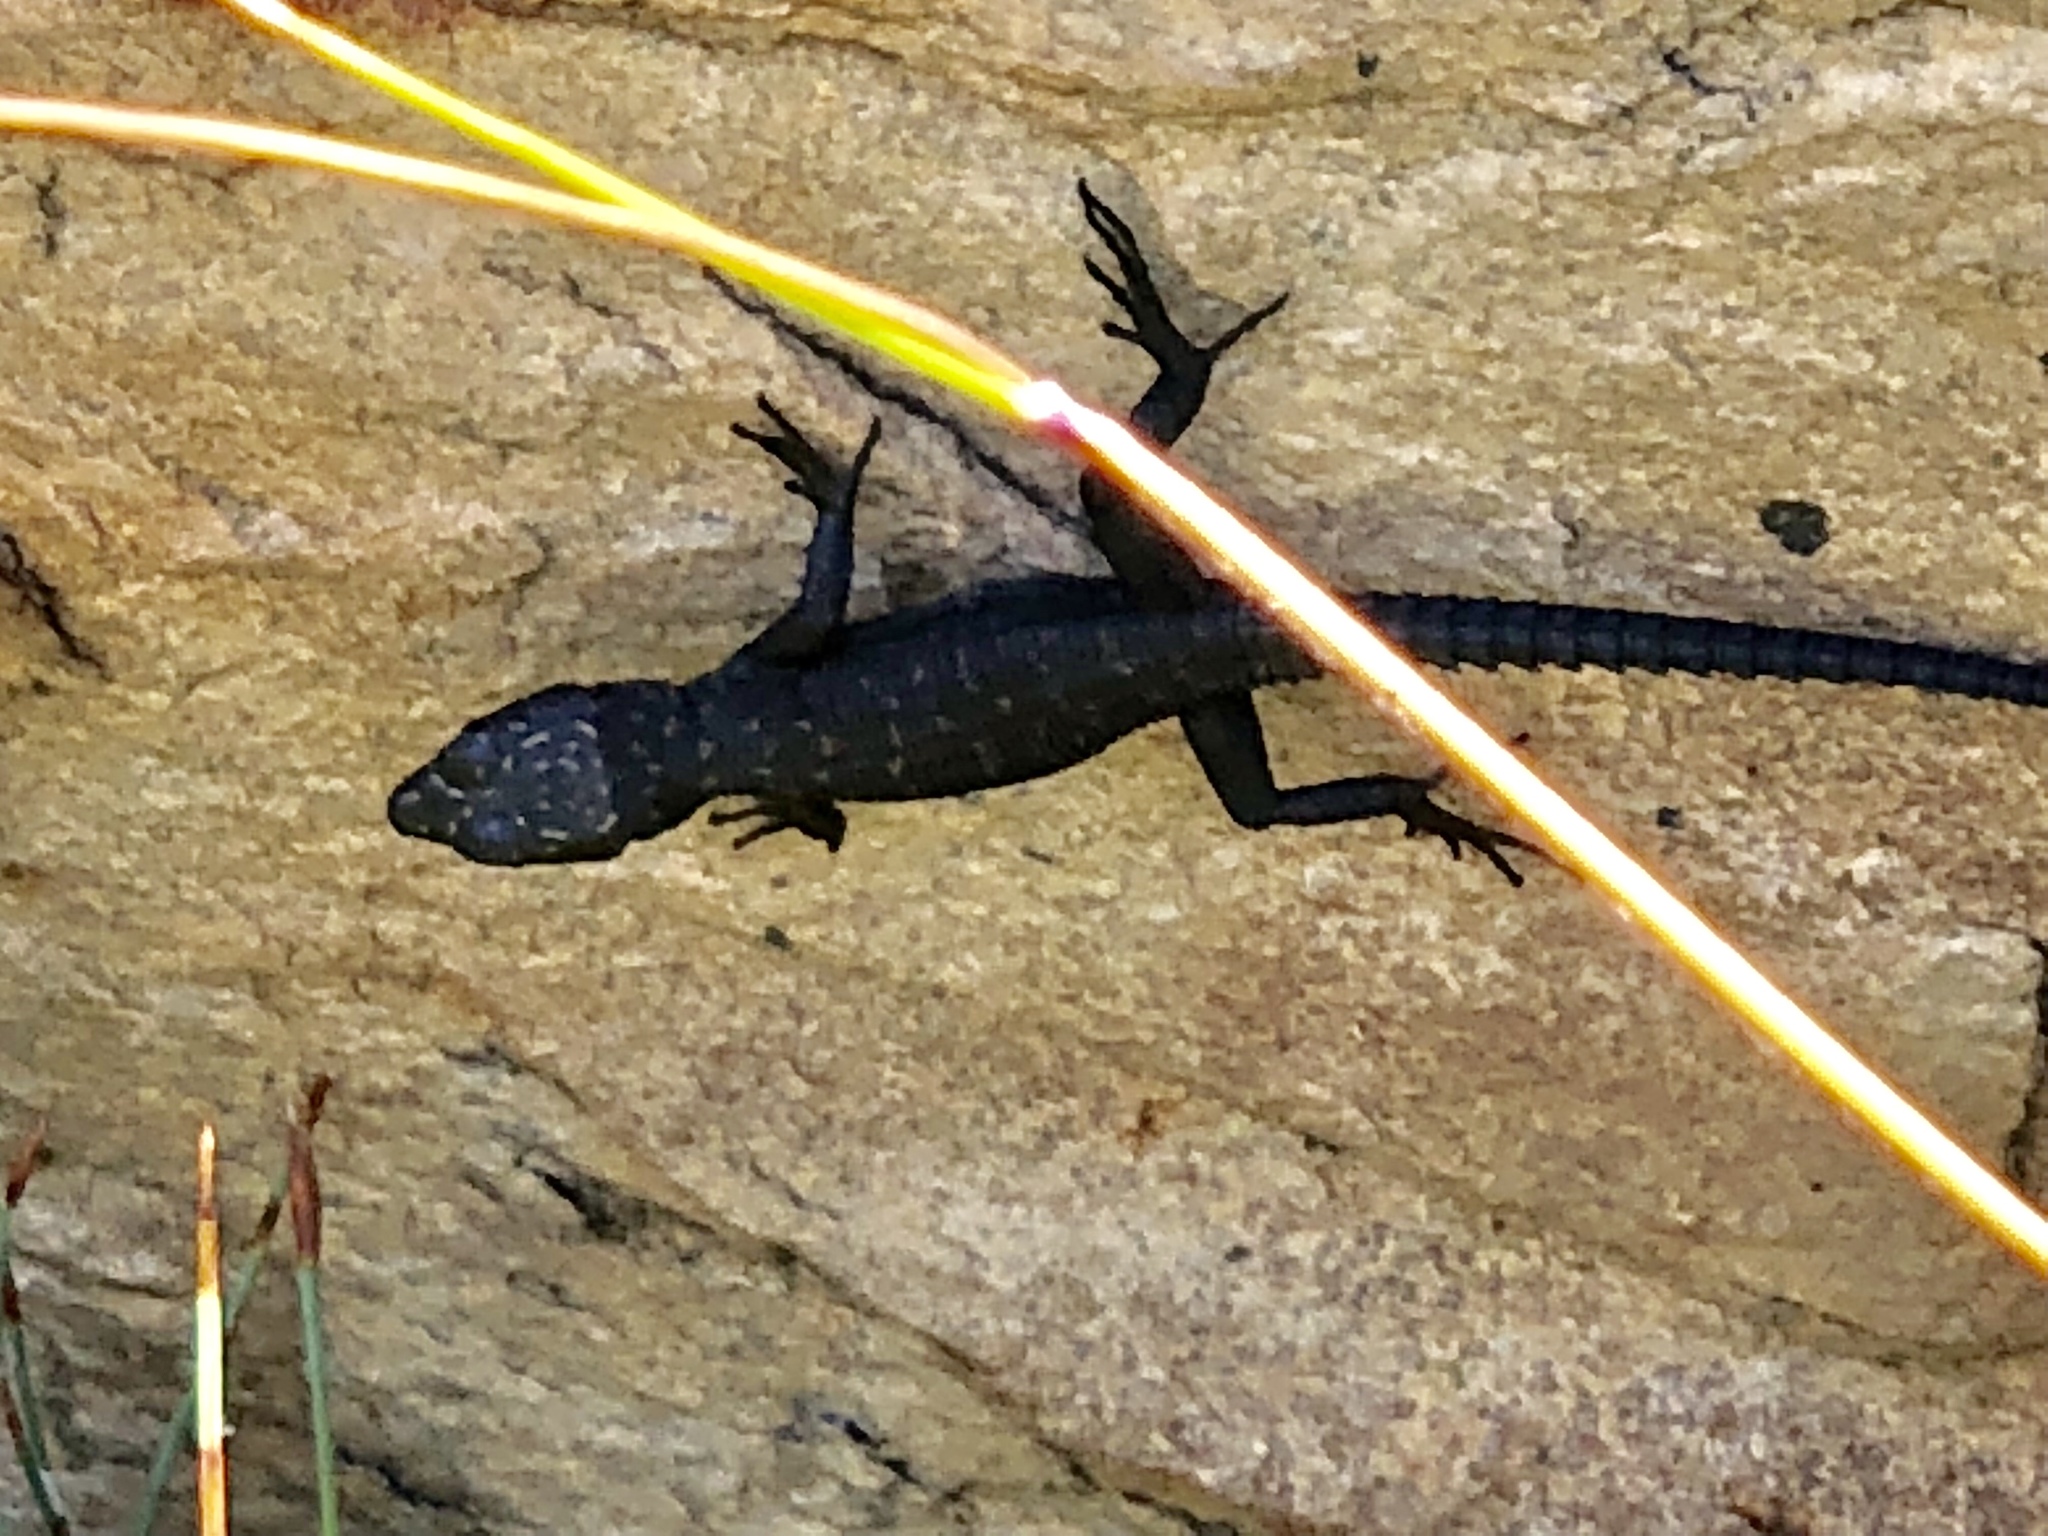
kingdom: Animalia
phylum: Chordata
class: Squamata
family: Cordylidae
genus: Hemicordylus
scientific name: Hemicordylus capensis
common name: Graceful crag lizard
